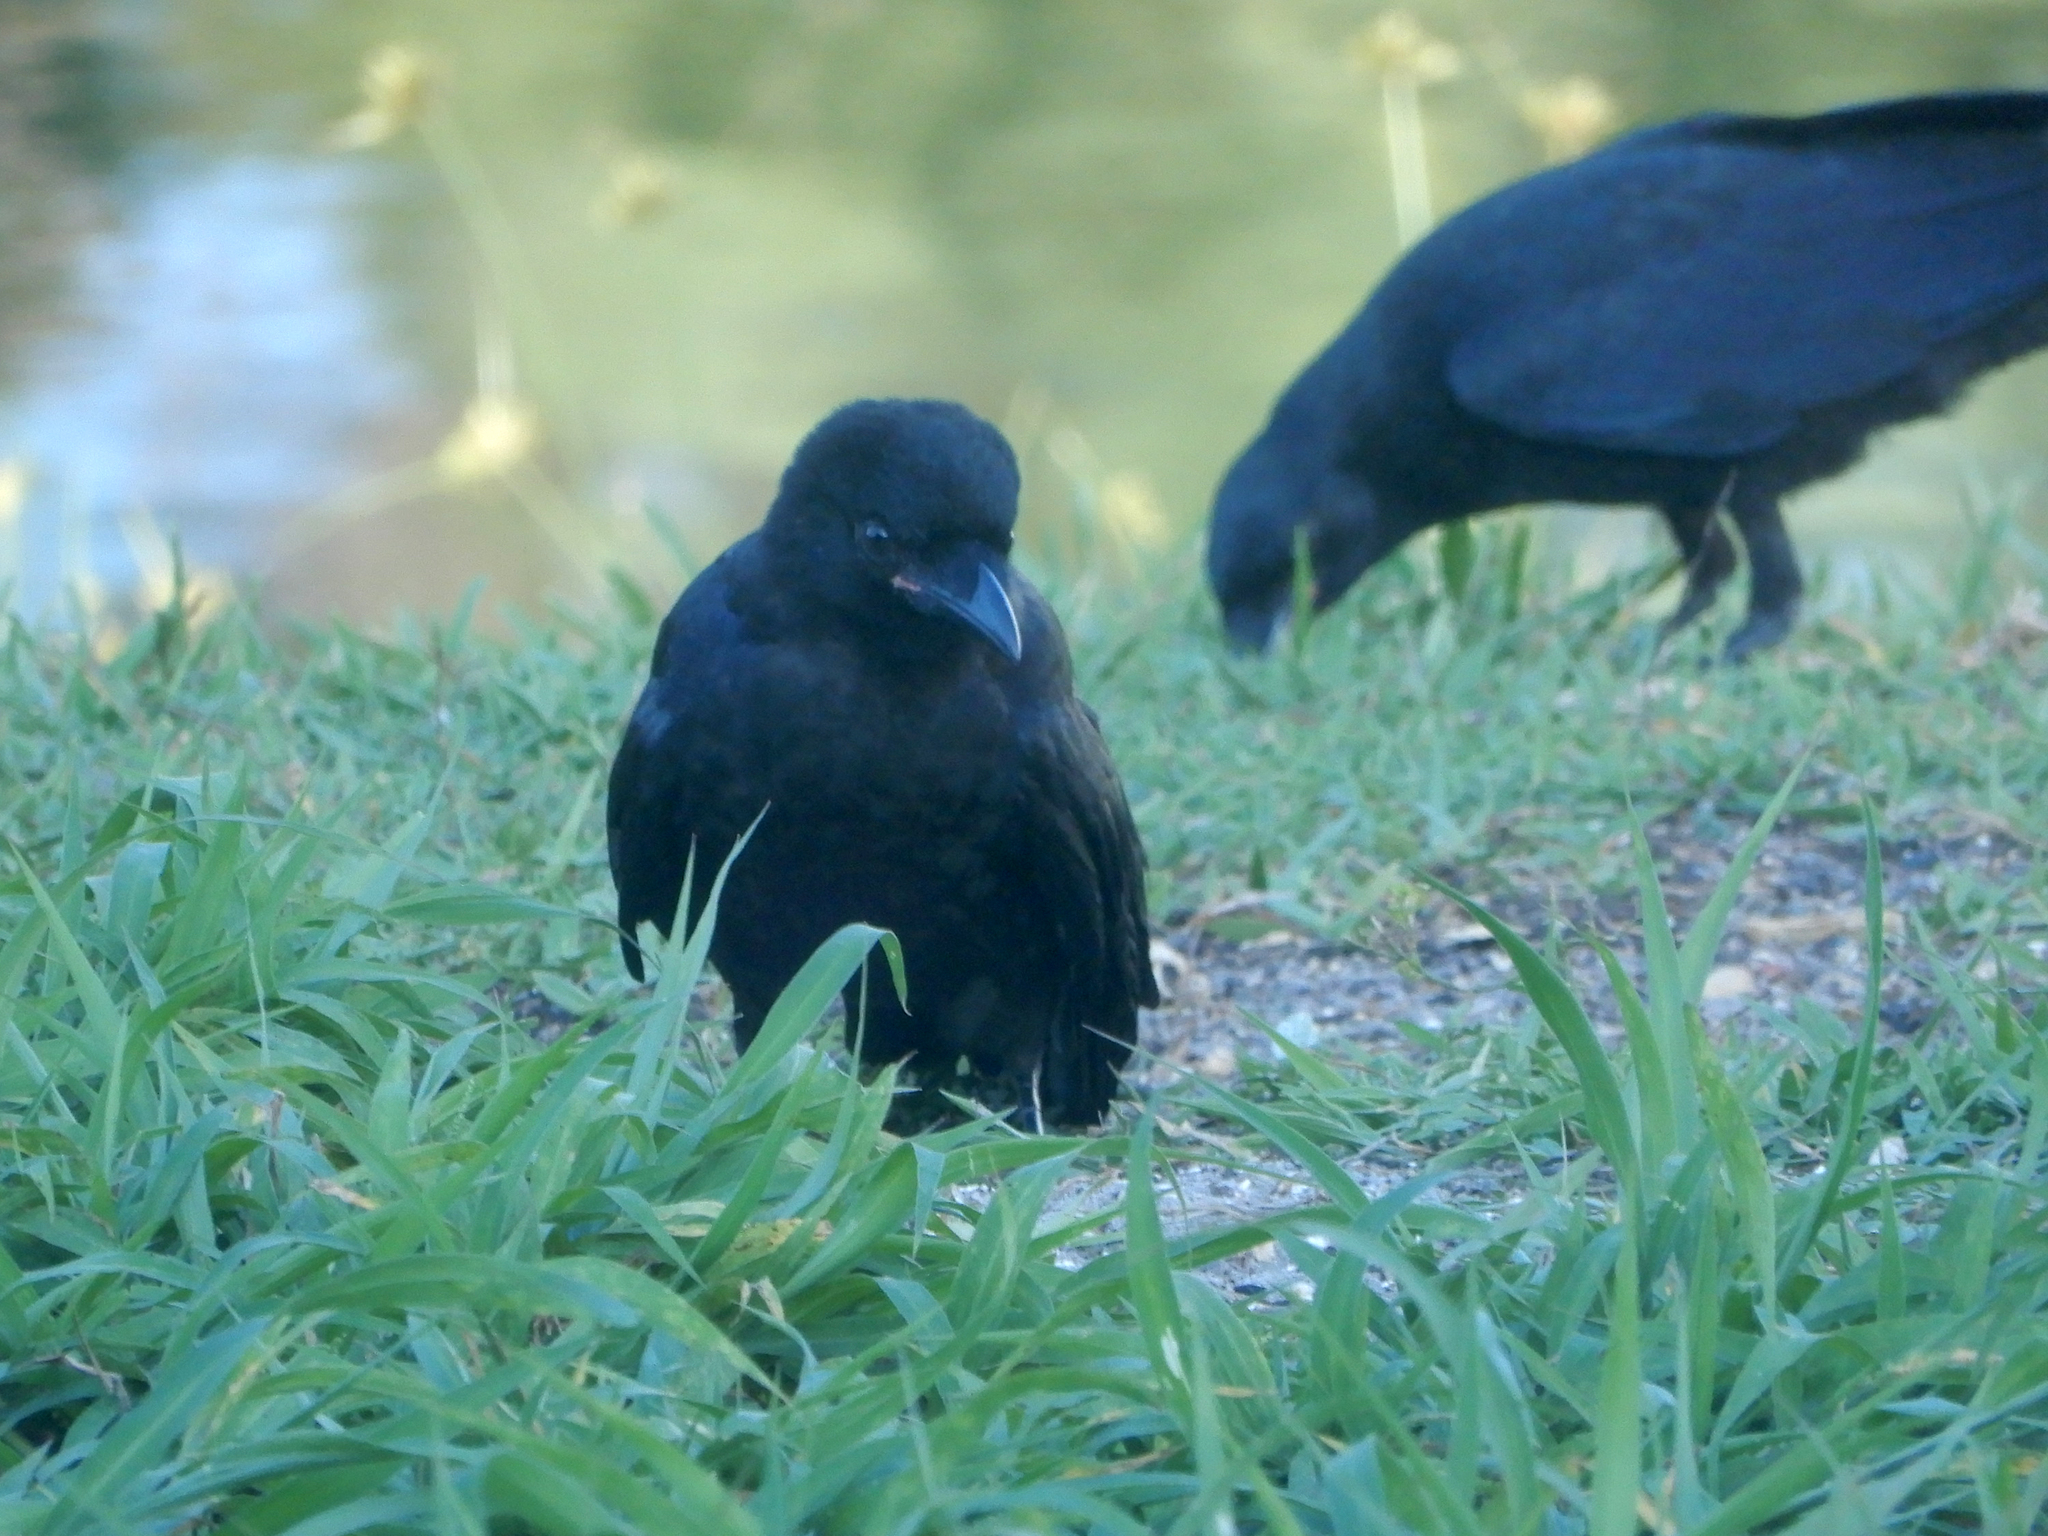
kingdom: Animalia
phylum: Chordata
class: Aves
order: Passeriformes
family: Corvidae
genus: Corvus
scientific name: Corvus ossifragus
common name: Fish crow
